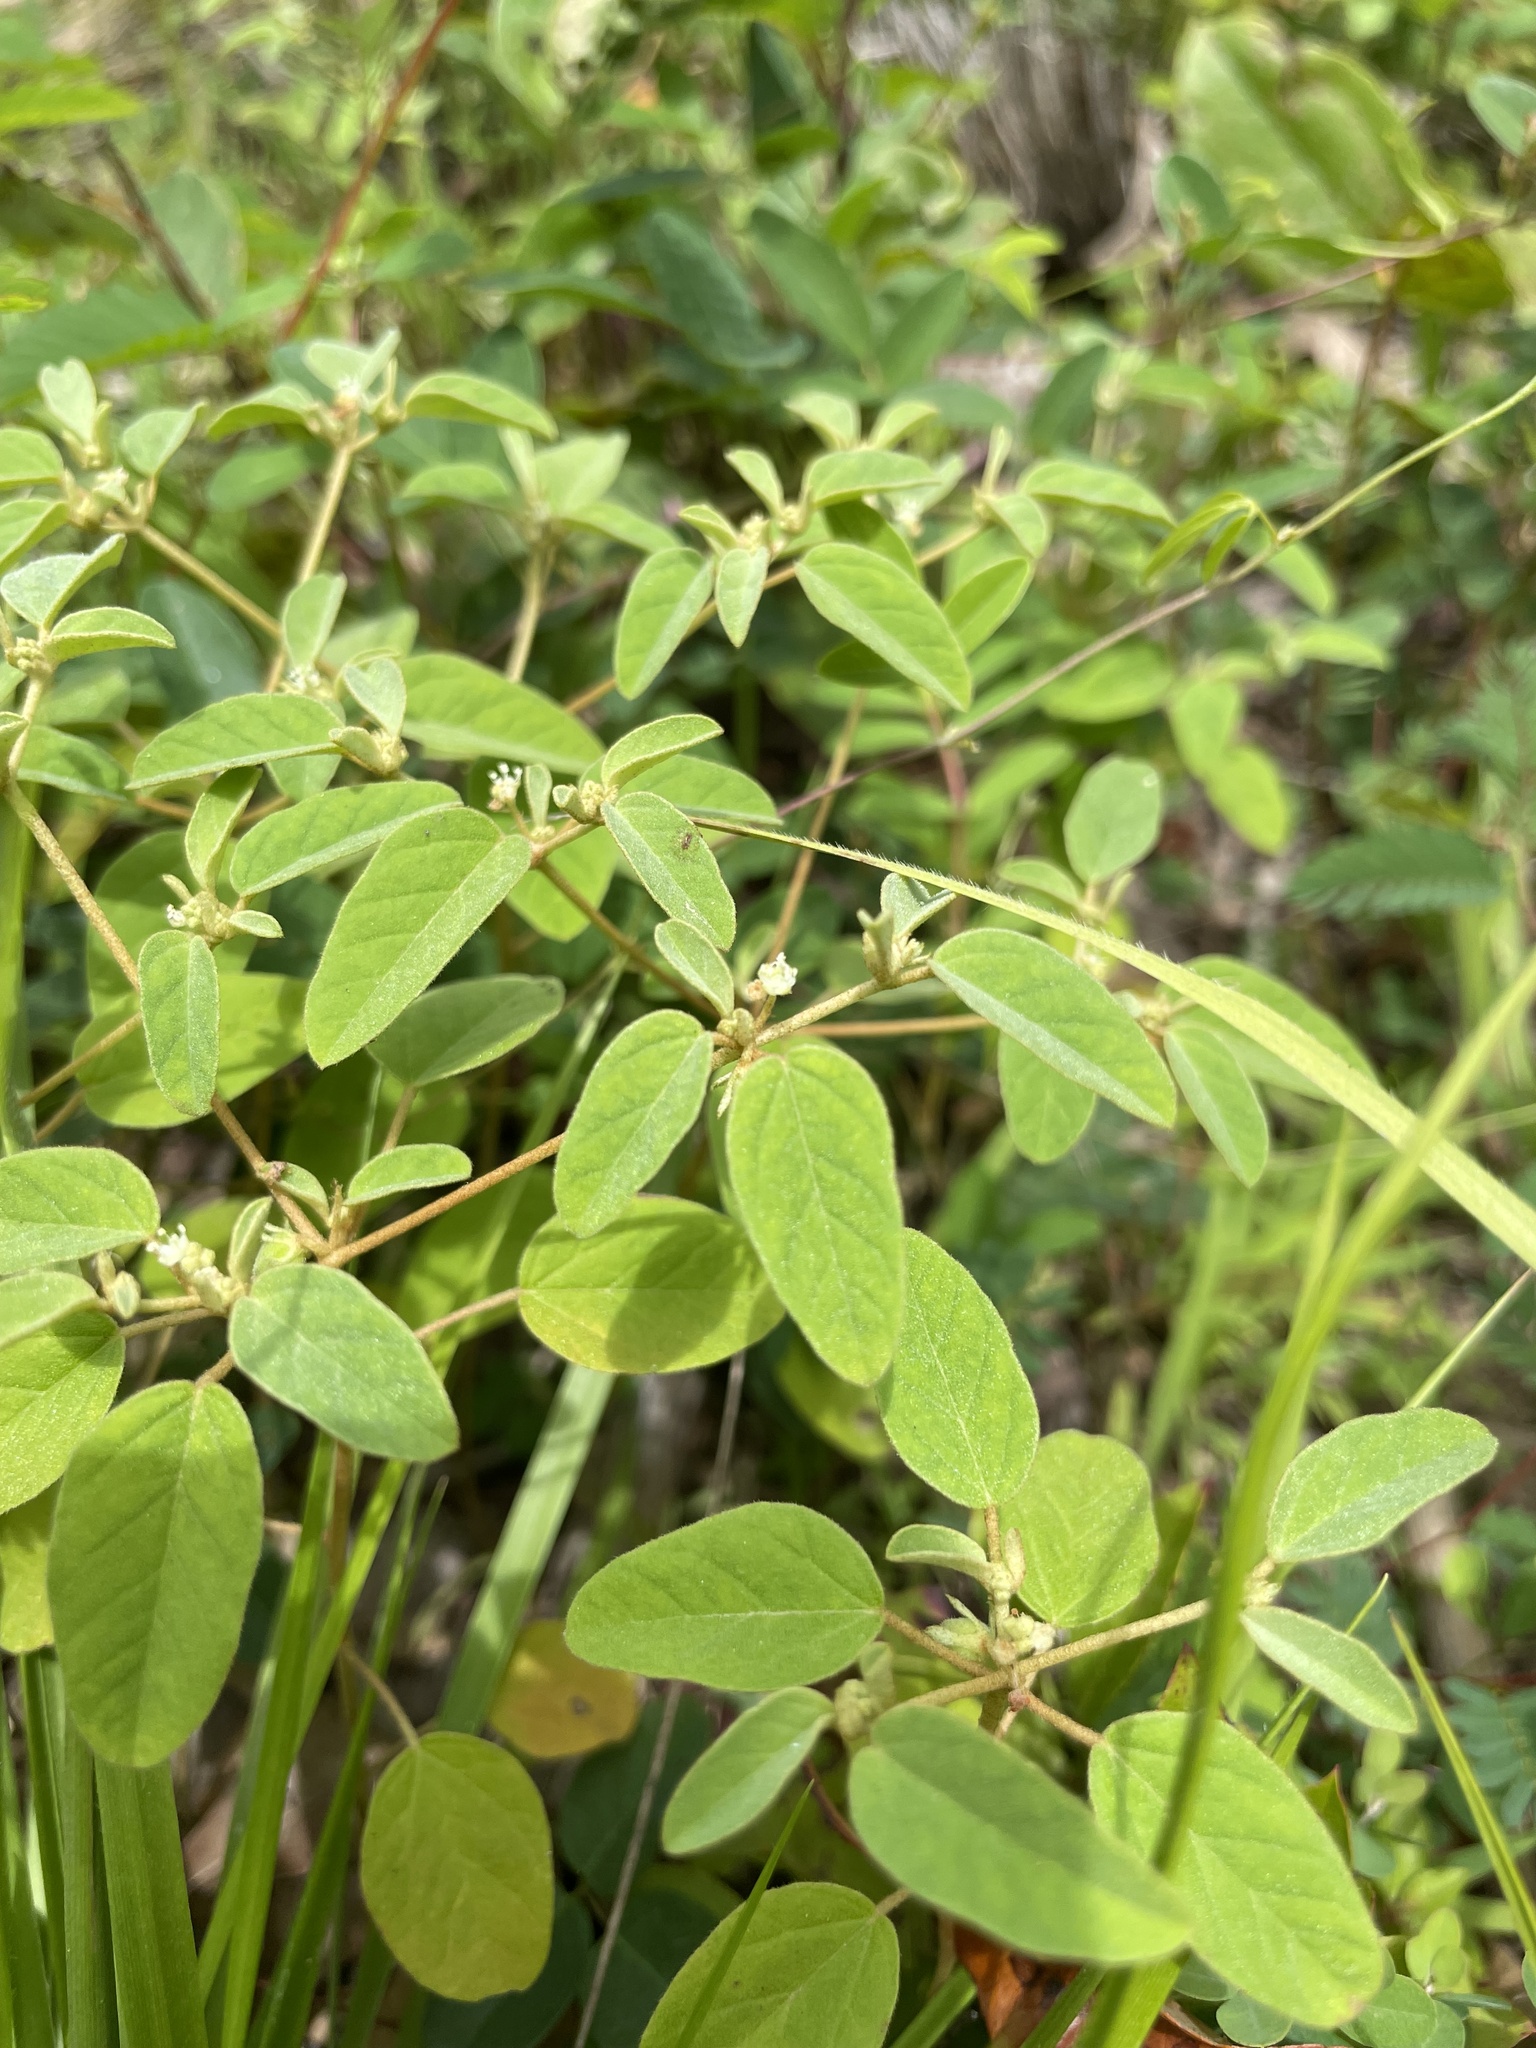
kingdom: Plantae
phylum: Tracheophyta
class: Magnoliopsida
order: Malpighiales
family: Euphorbiaceae
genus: Croton
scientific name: Croton monanthogynus
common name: One-seed croton
